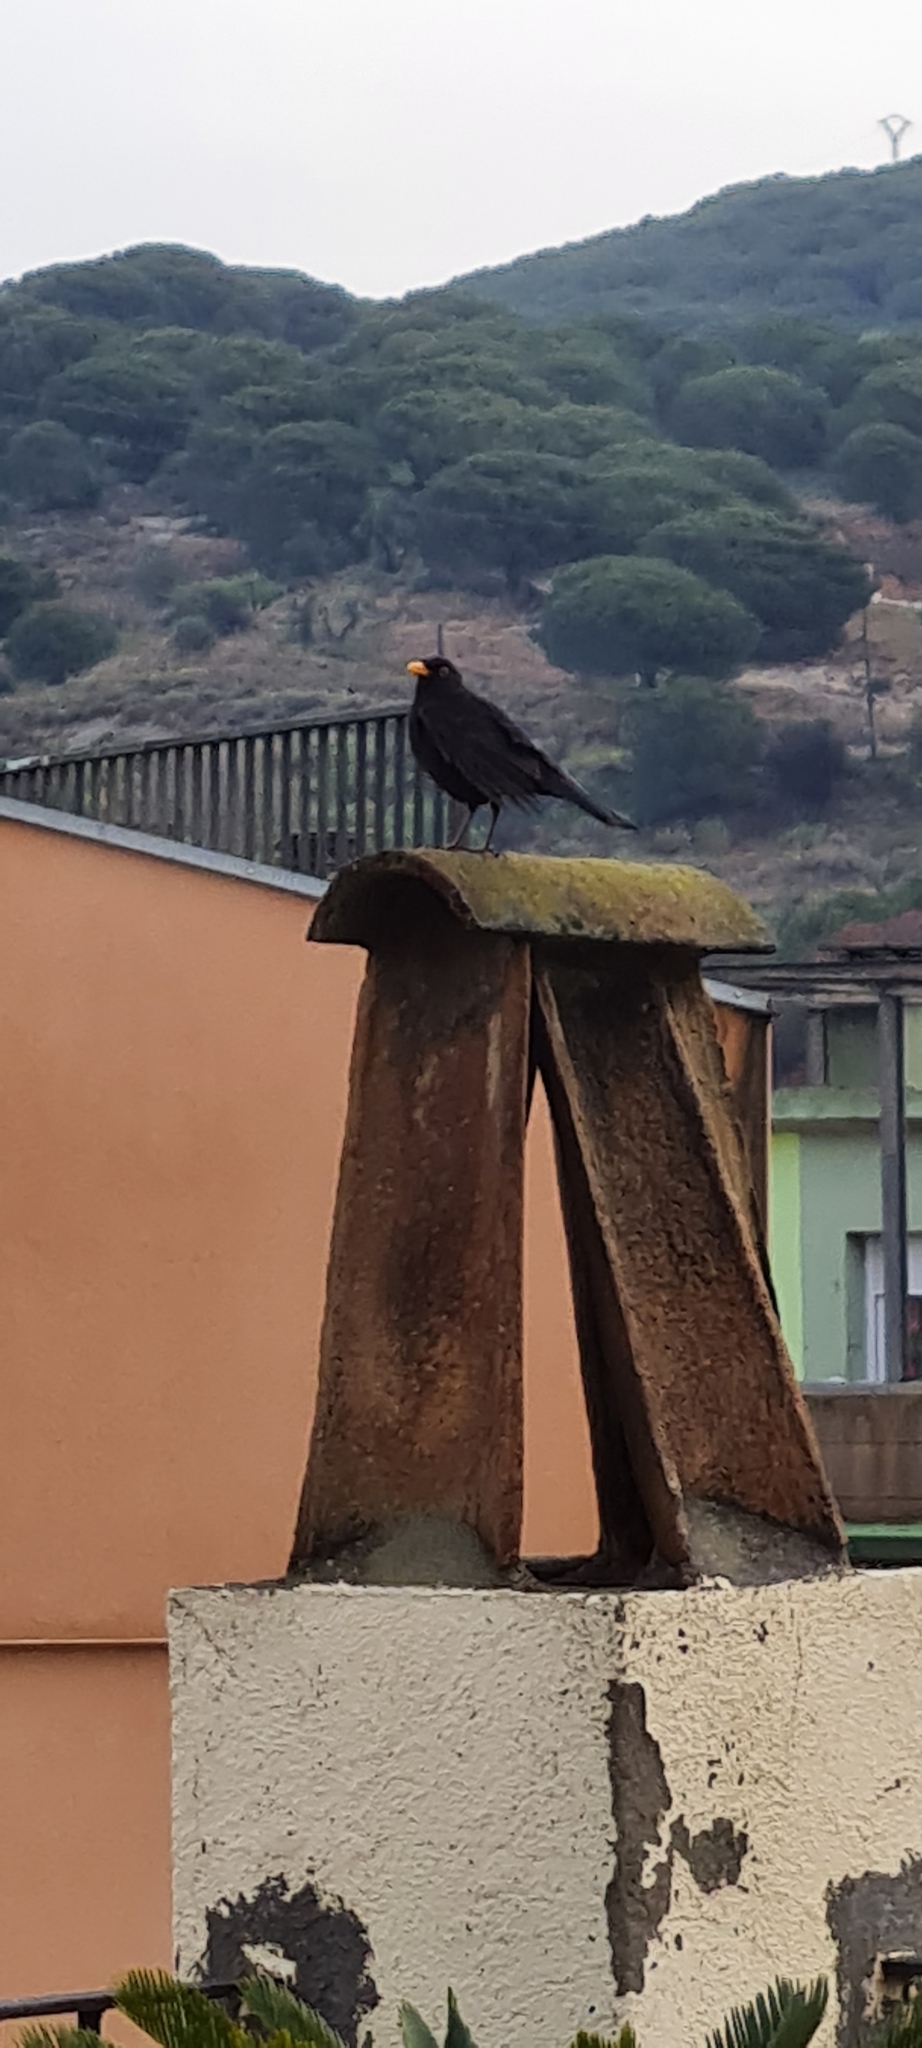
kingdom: Animalia
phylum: Chordata
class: Aves
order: Passeriformes
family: Turdidae
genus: Turdus
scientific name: Turdus merula
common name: Common blackbird
